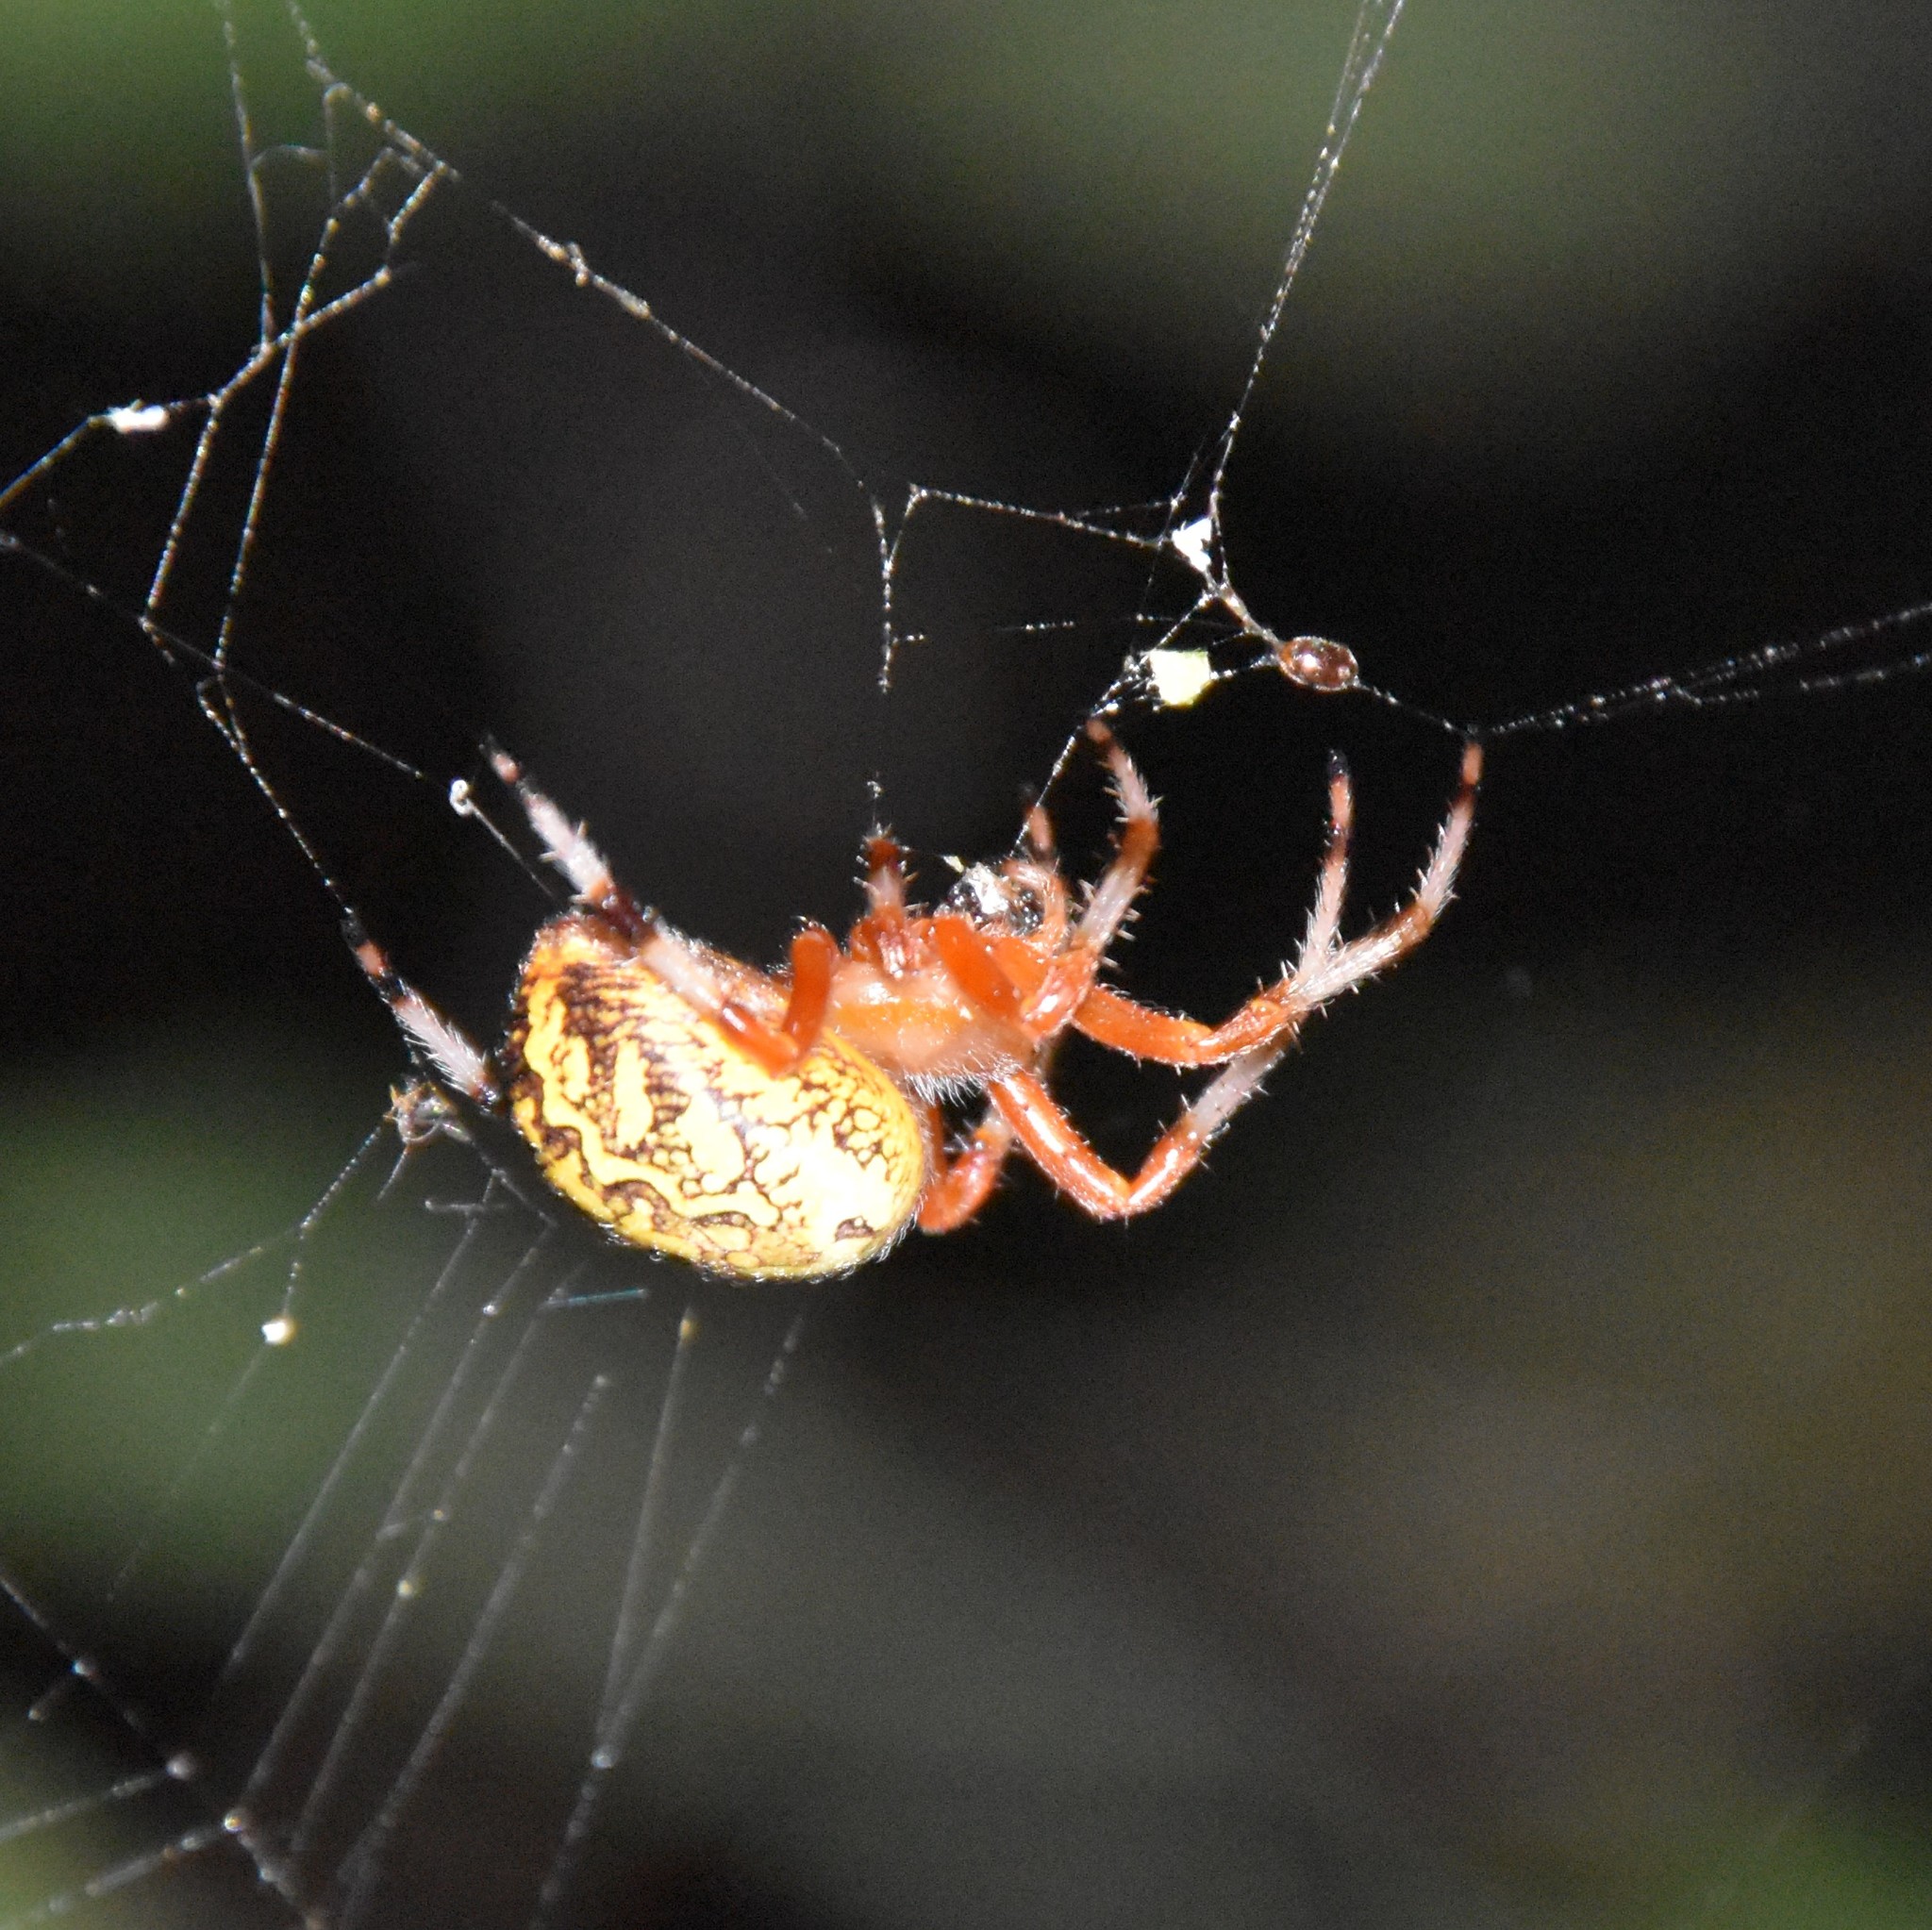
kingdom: Animalia
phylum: Arthropoda
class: Arachnida
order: Araneae
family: Araneidae
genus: Araneus
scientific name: Araneus marmoreus
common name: Marbled orbweaver
